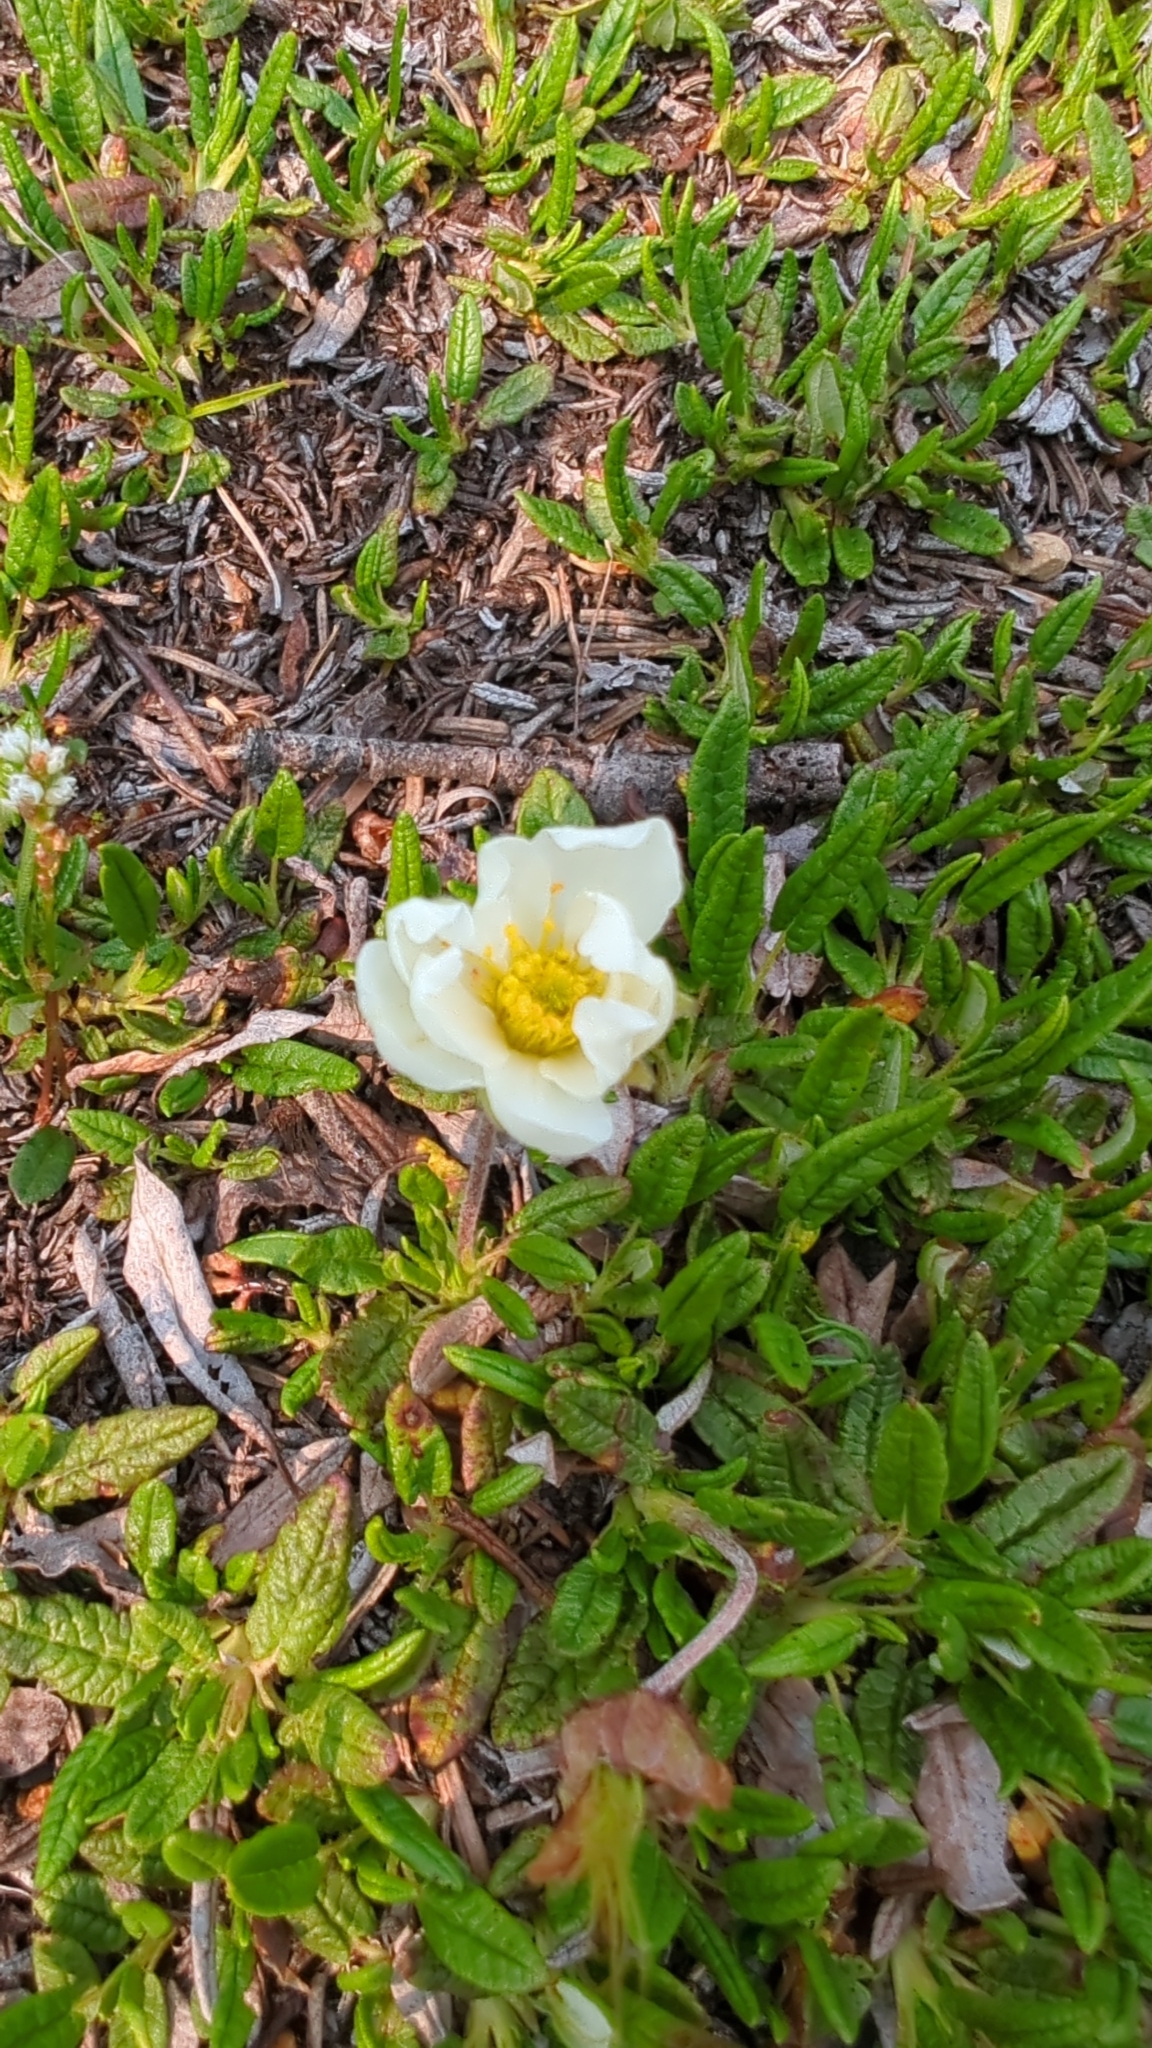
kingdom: Plantae
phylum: Tracheophyta
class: Magnoliopsida
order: Rosales
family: Rosaceae
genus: Dryas
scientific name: Dryas integrifolia
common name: Entire-leaved mountain avens
